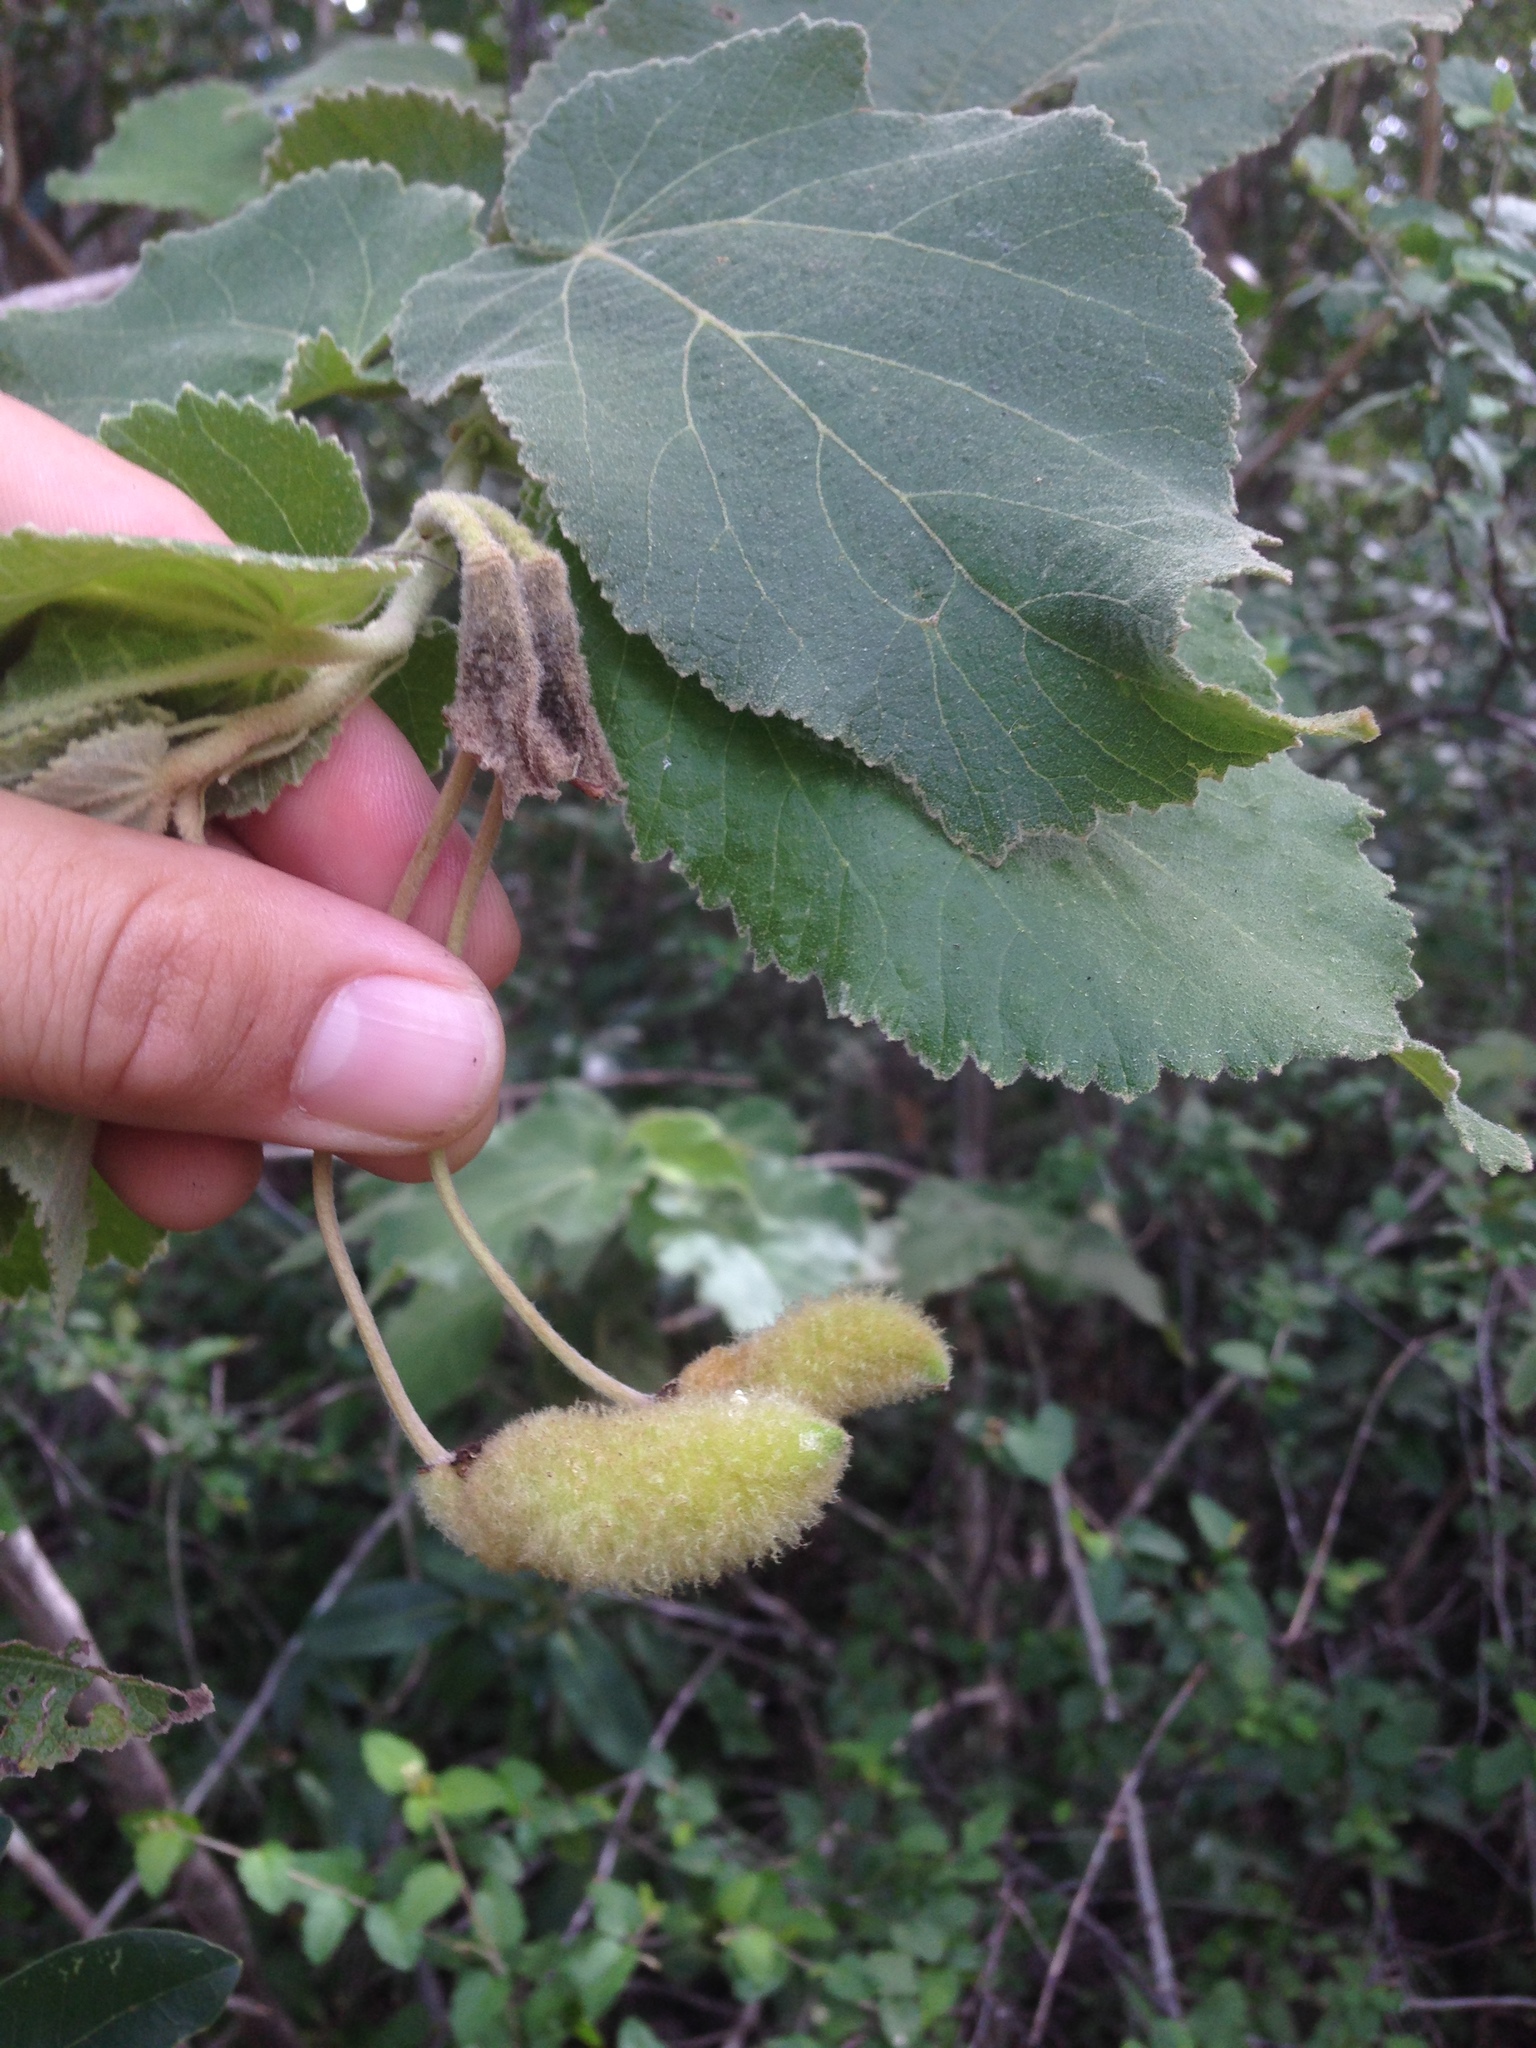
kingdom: Plantae
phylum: Tracheophyta
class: Magnoliopsida
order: Malvales
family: Malvaceae
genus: Helicteres
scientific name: Helicteres jamaicensis
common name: Cowbush
